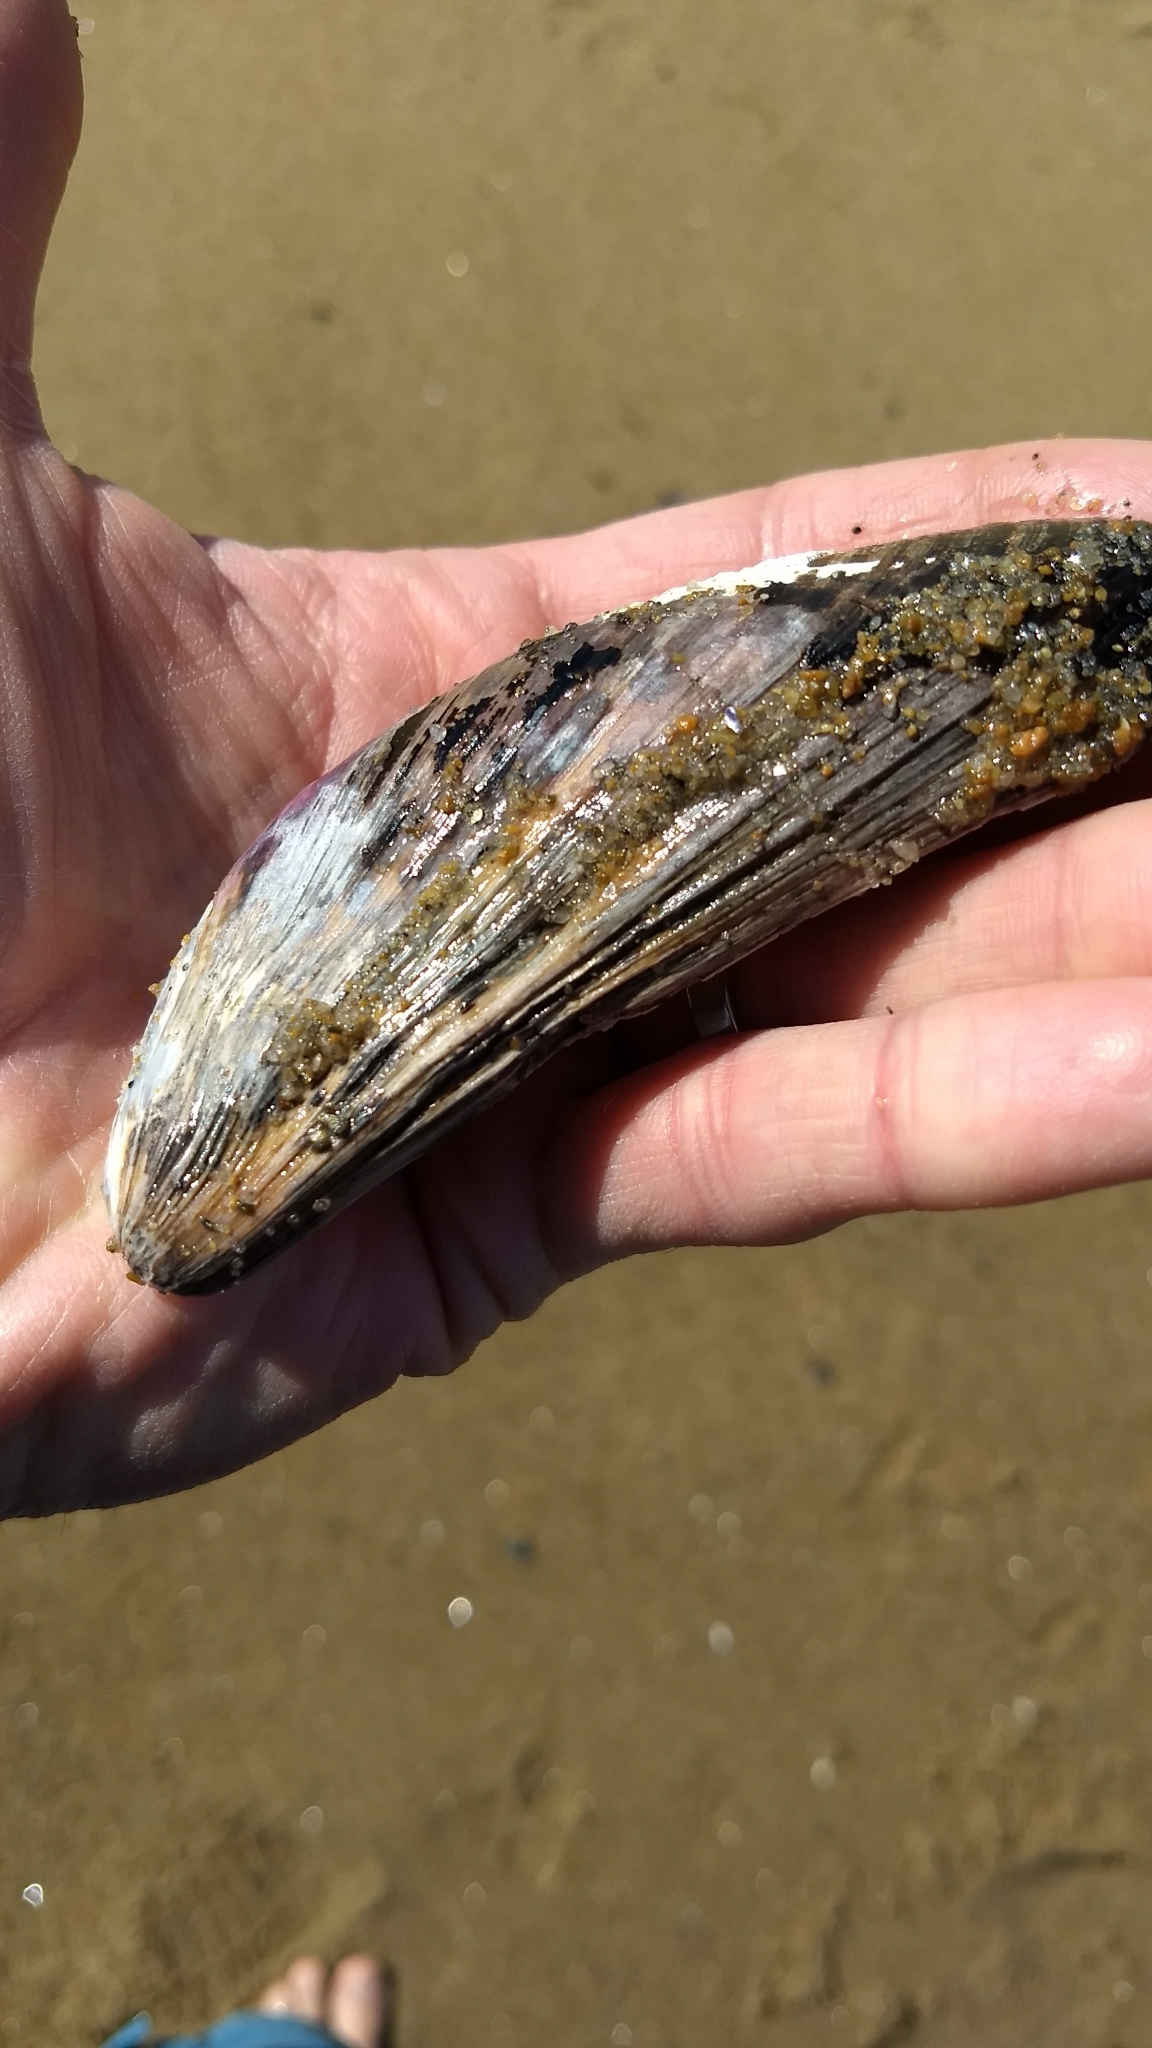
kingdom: Animalia
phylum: Mollusca
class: Bivalvia
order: Mytilida
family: Mytilidae
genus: Modiolus
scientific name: Modiolus modiolus
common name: Horse-mussel
